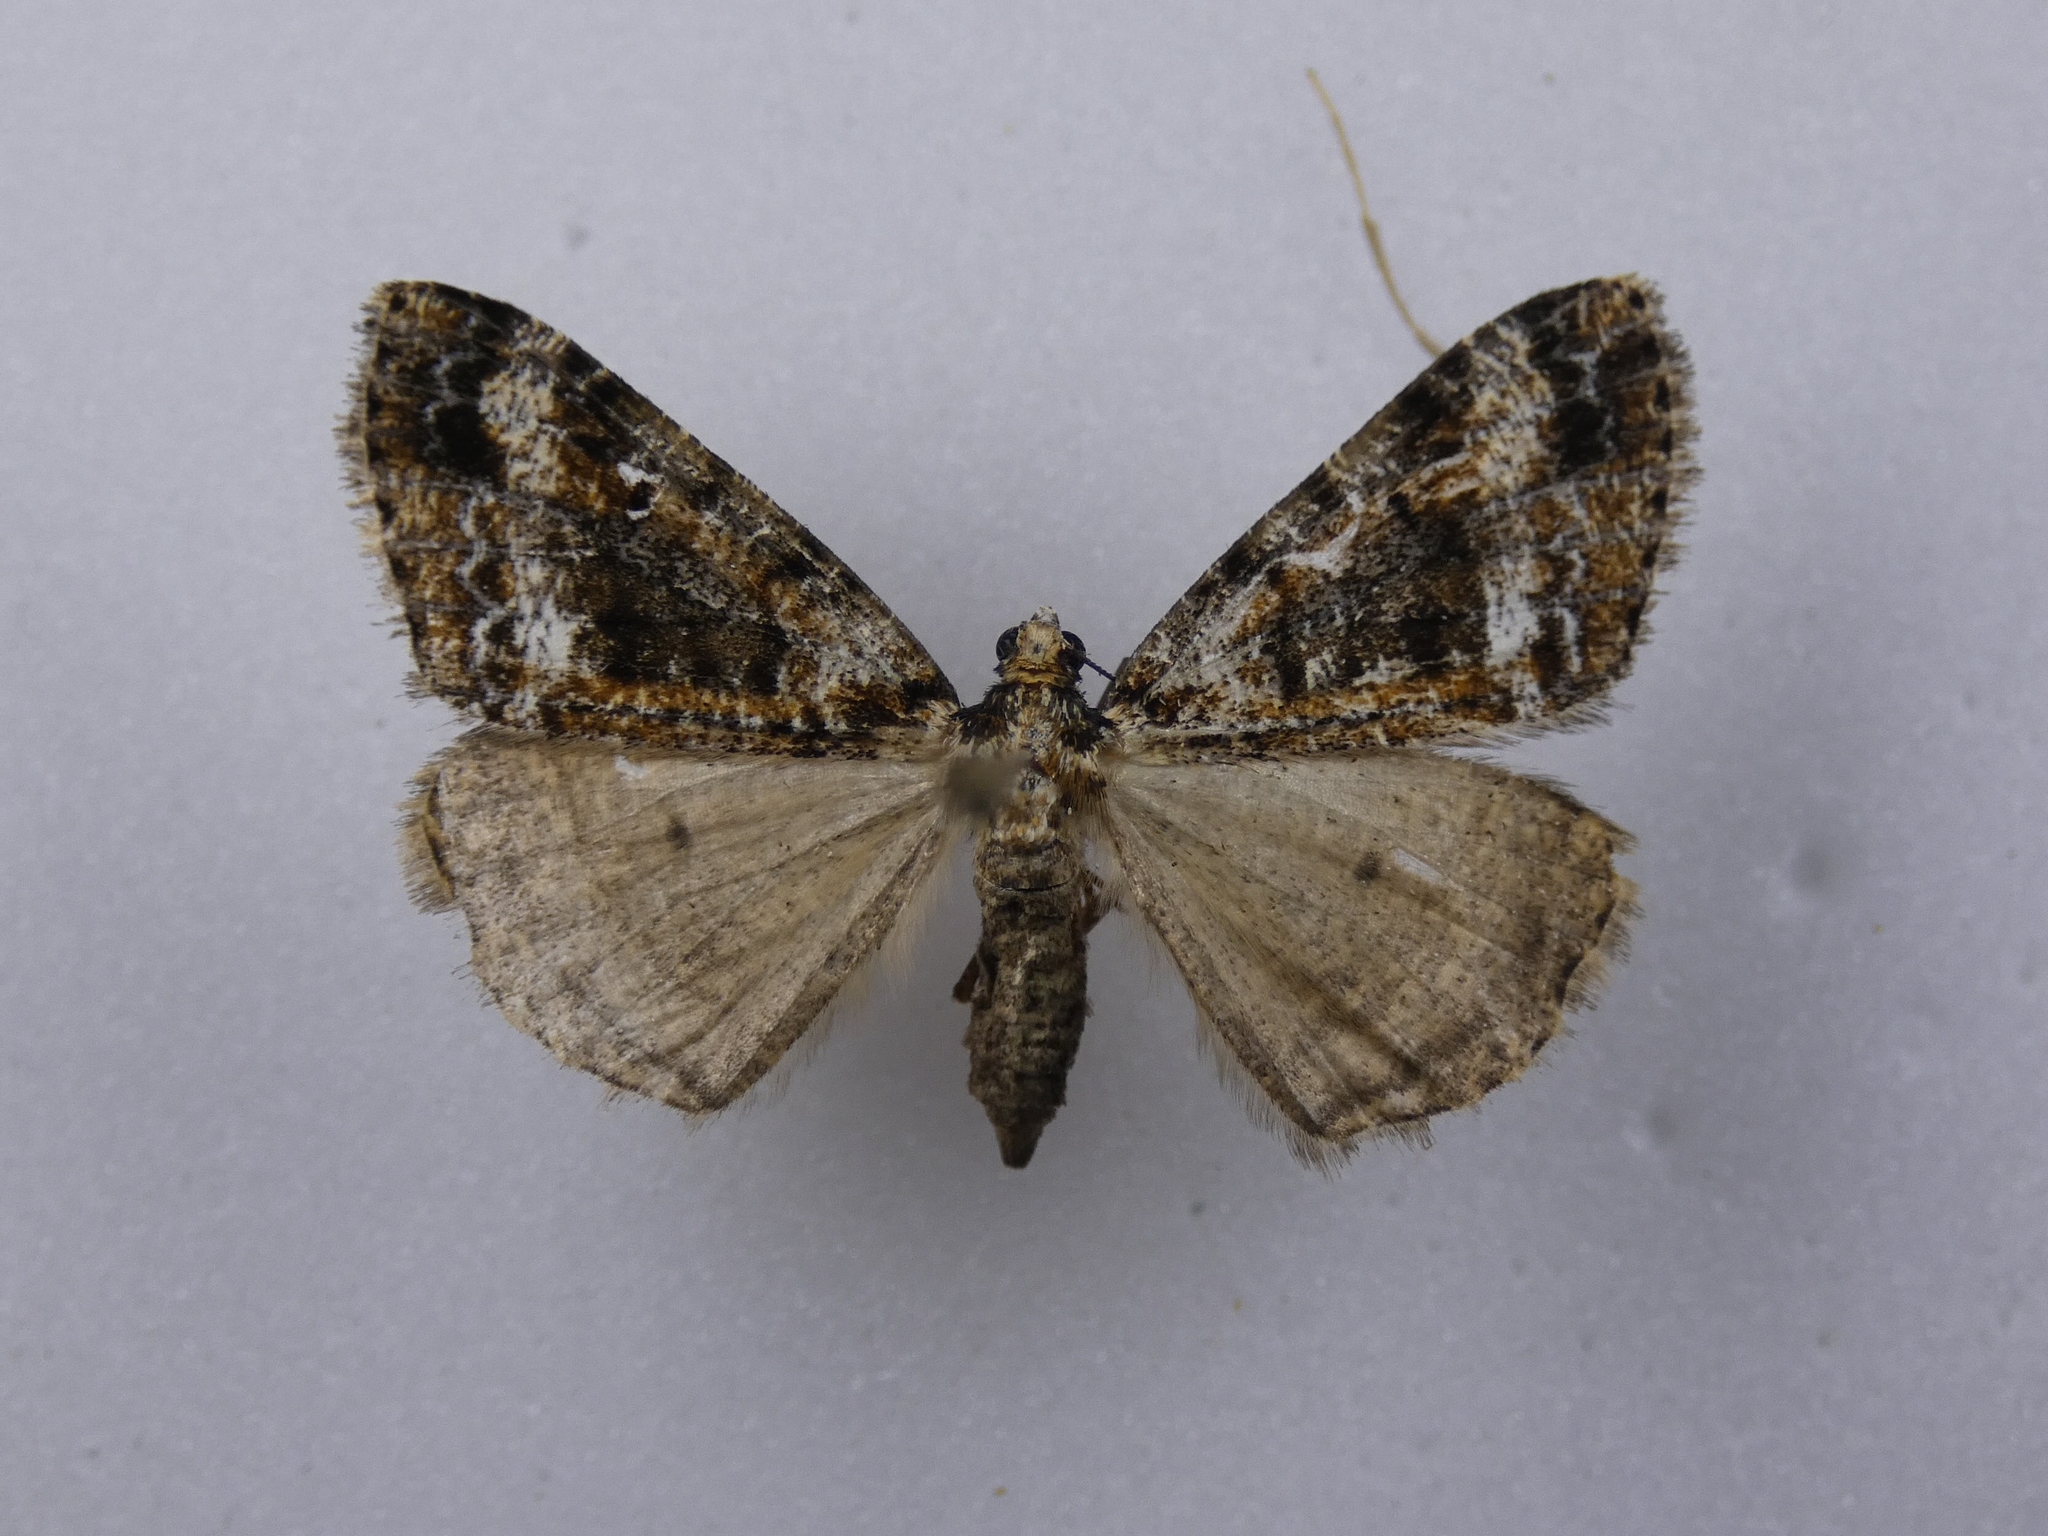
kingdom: Animalia
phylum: Arthropoda
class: Insecta
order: Lepidoptera
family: Geometridae
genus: Pseudocoremia
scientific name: Pseudocoremia leucelaea
